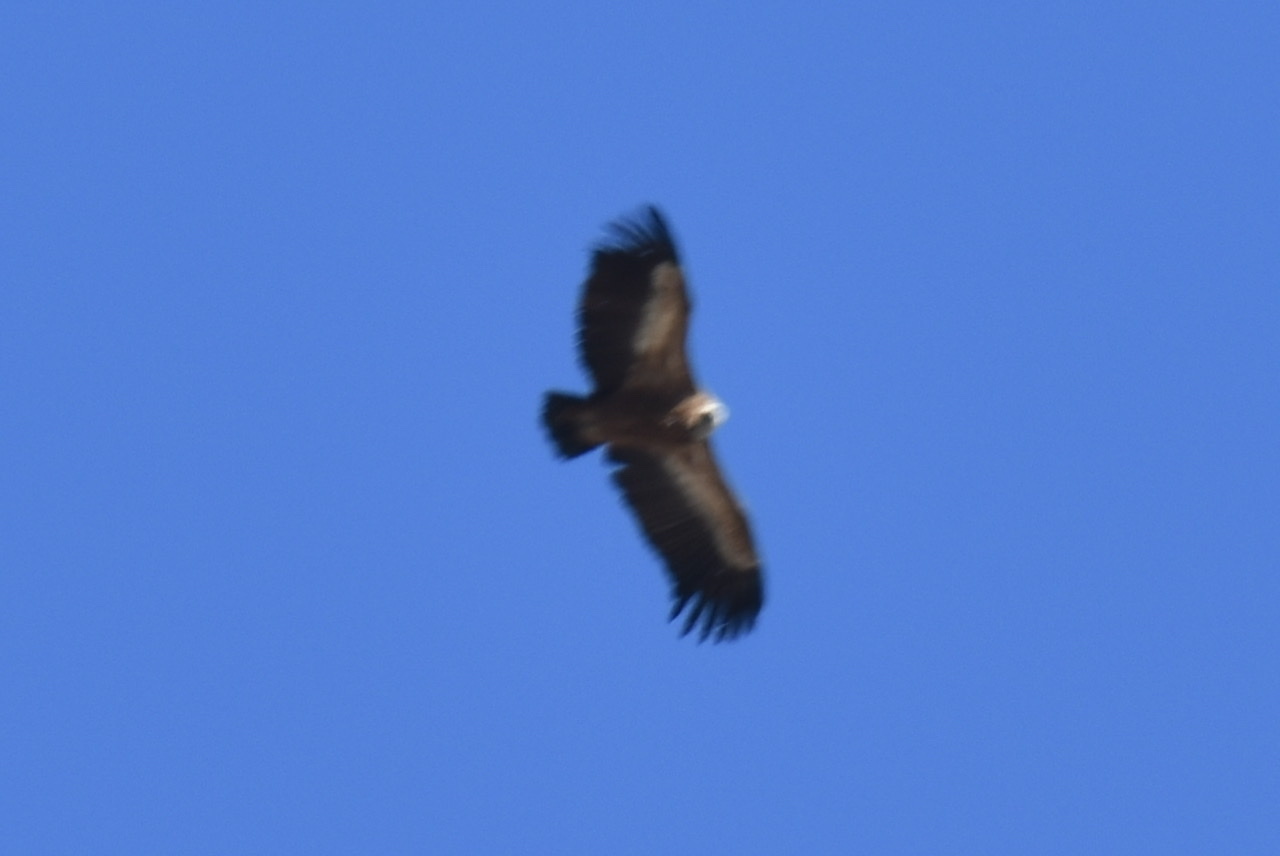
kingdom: Animalia
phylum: Chordata
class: Aves
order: Accipitriformes
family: Accipitridae
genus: Gyps
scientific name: Gyps fulvus
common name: Griffon vulture
